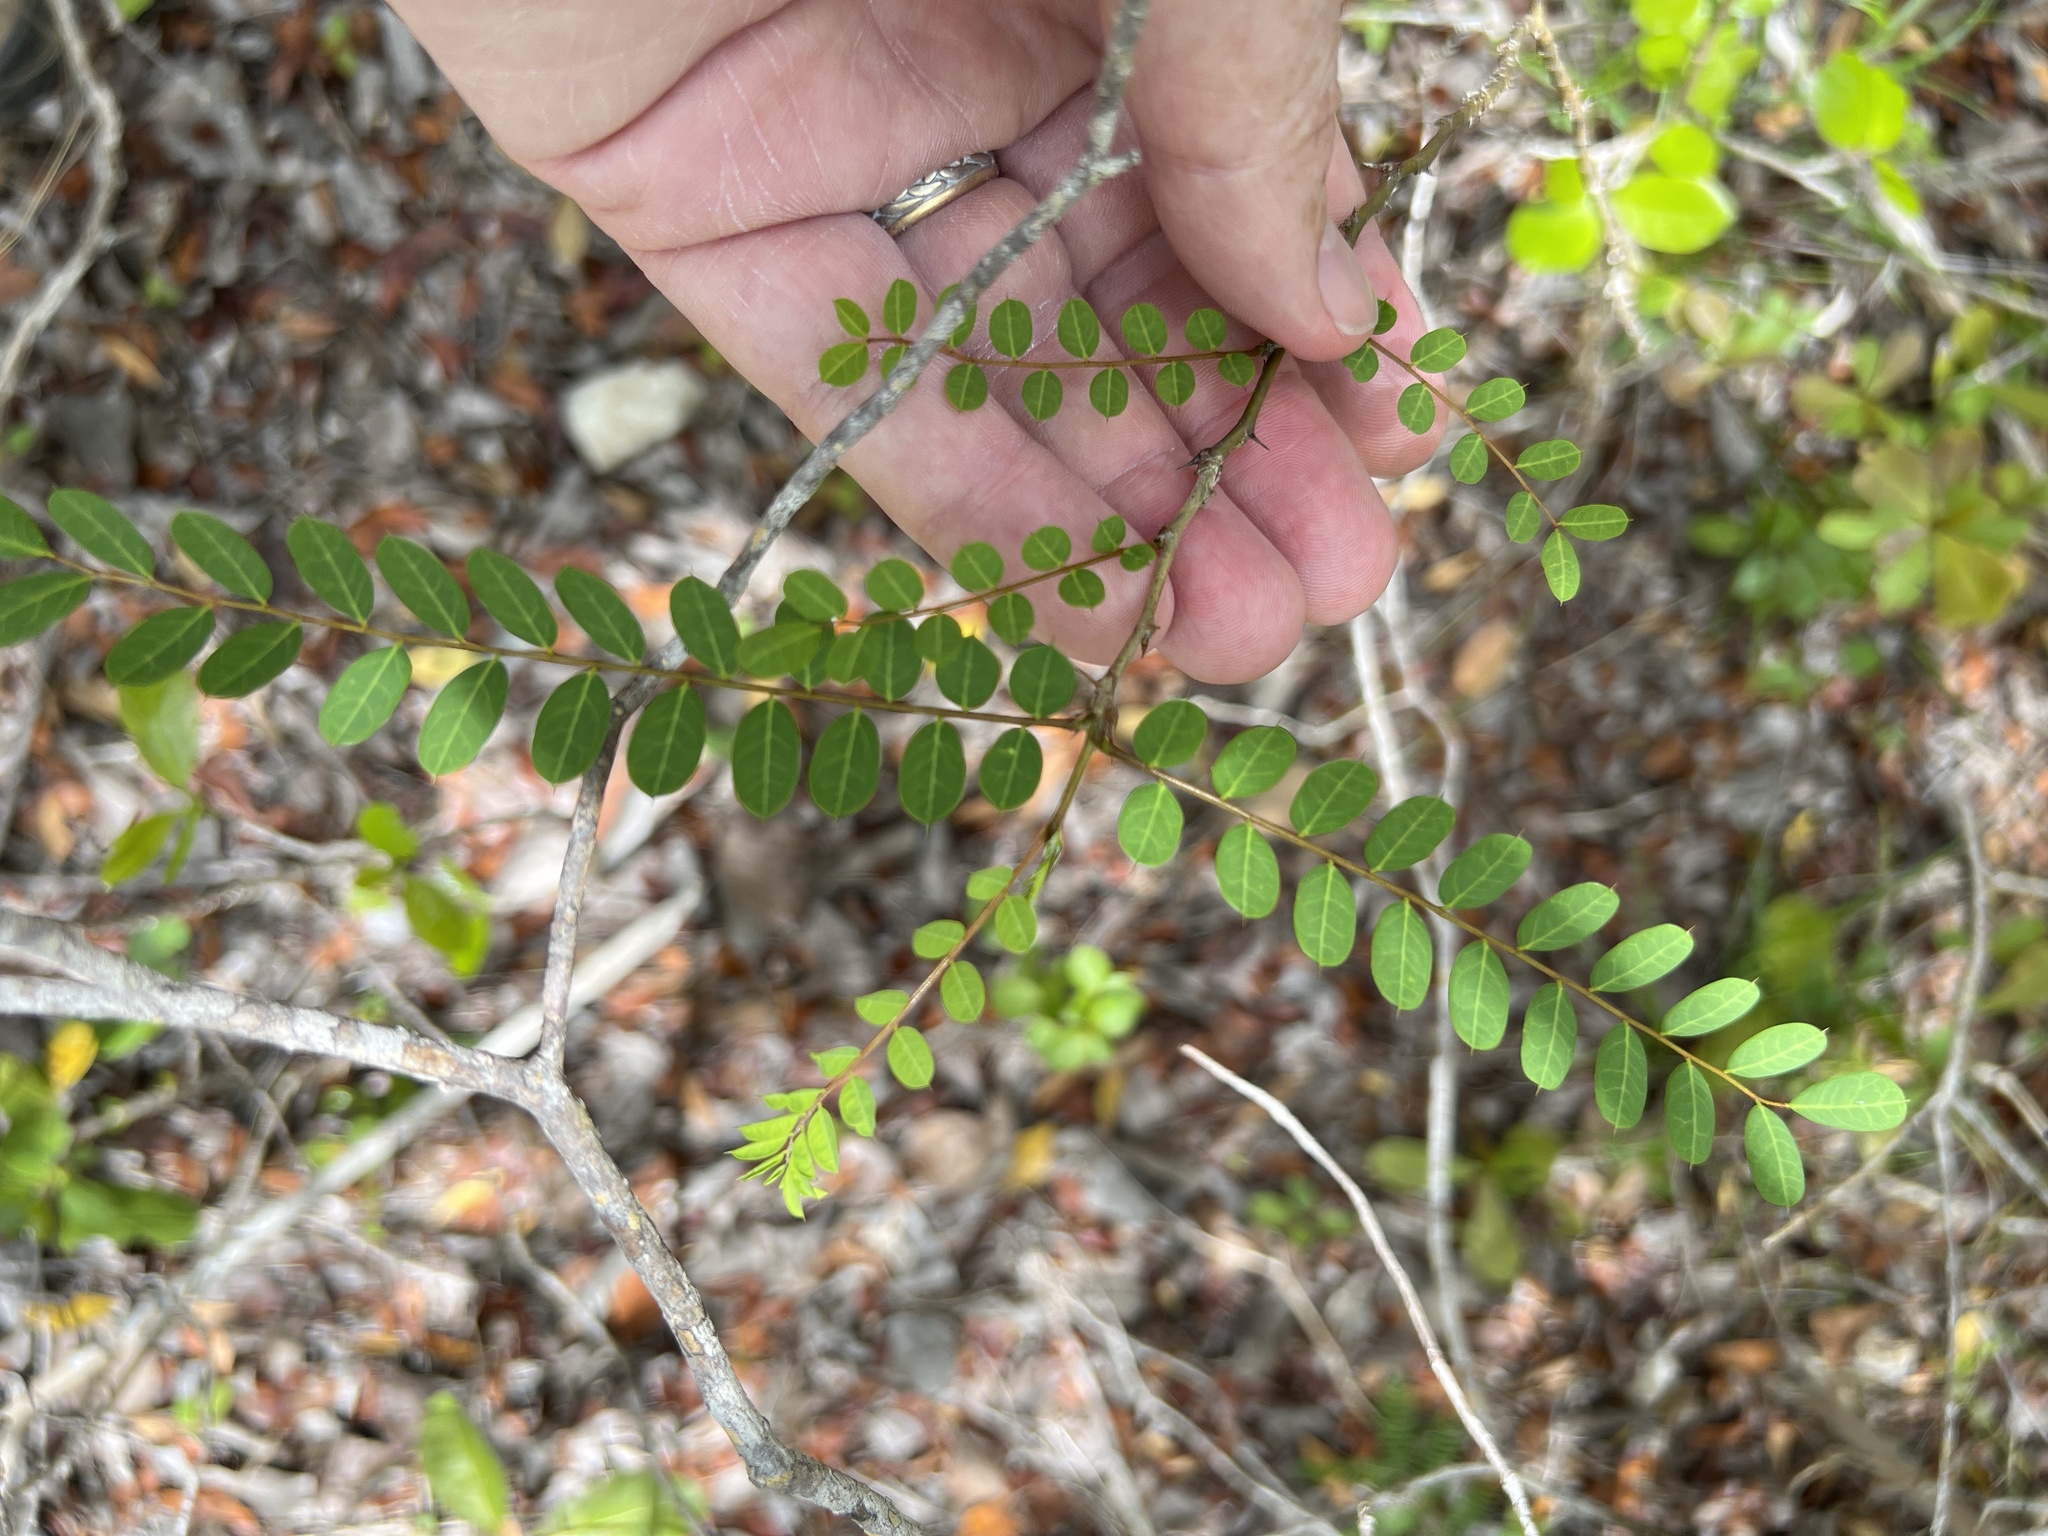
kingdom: Plantae
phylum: Tracheophyta
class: Magnoliopsida
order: Fabales
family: Fabaceae
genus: Pictetia
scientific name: Pictetia aculeata
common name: Fustic
